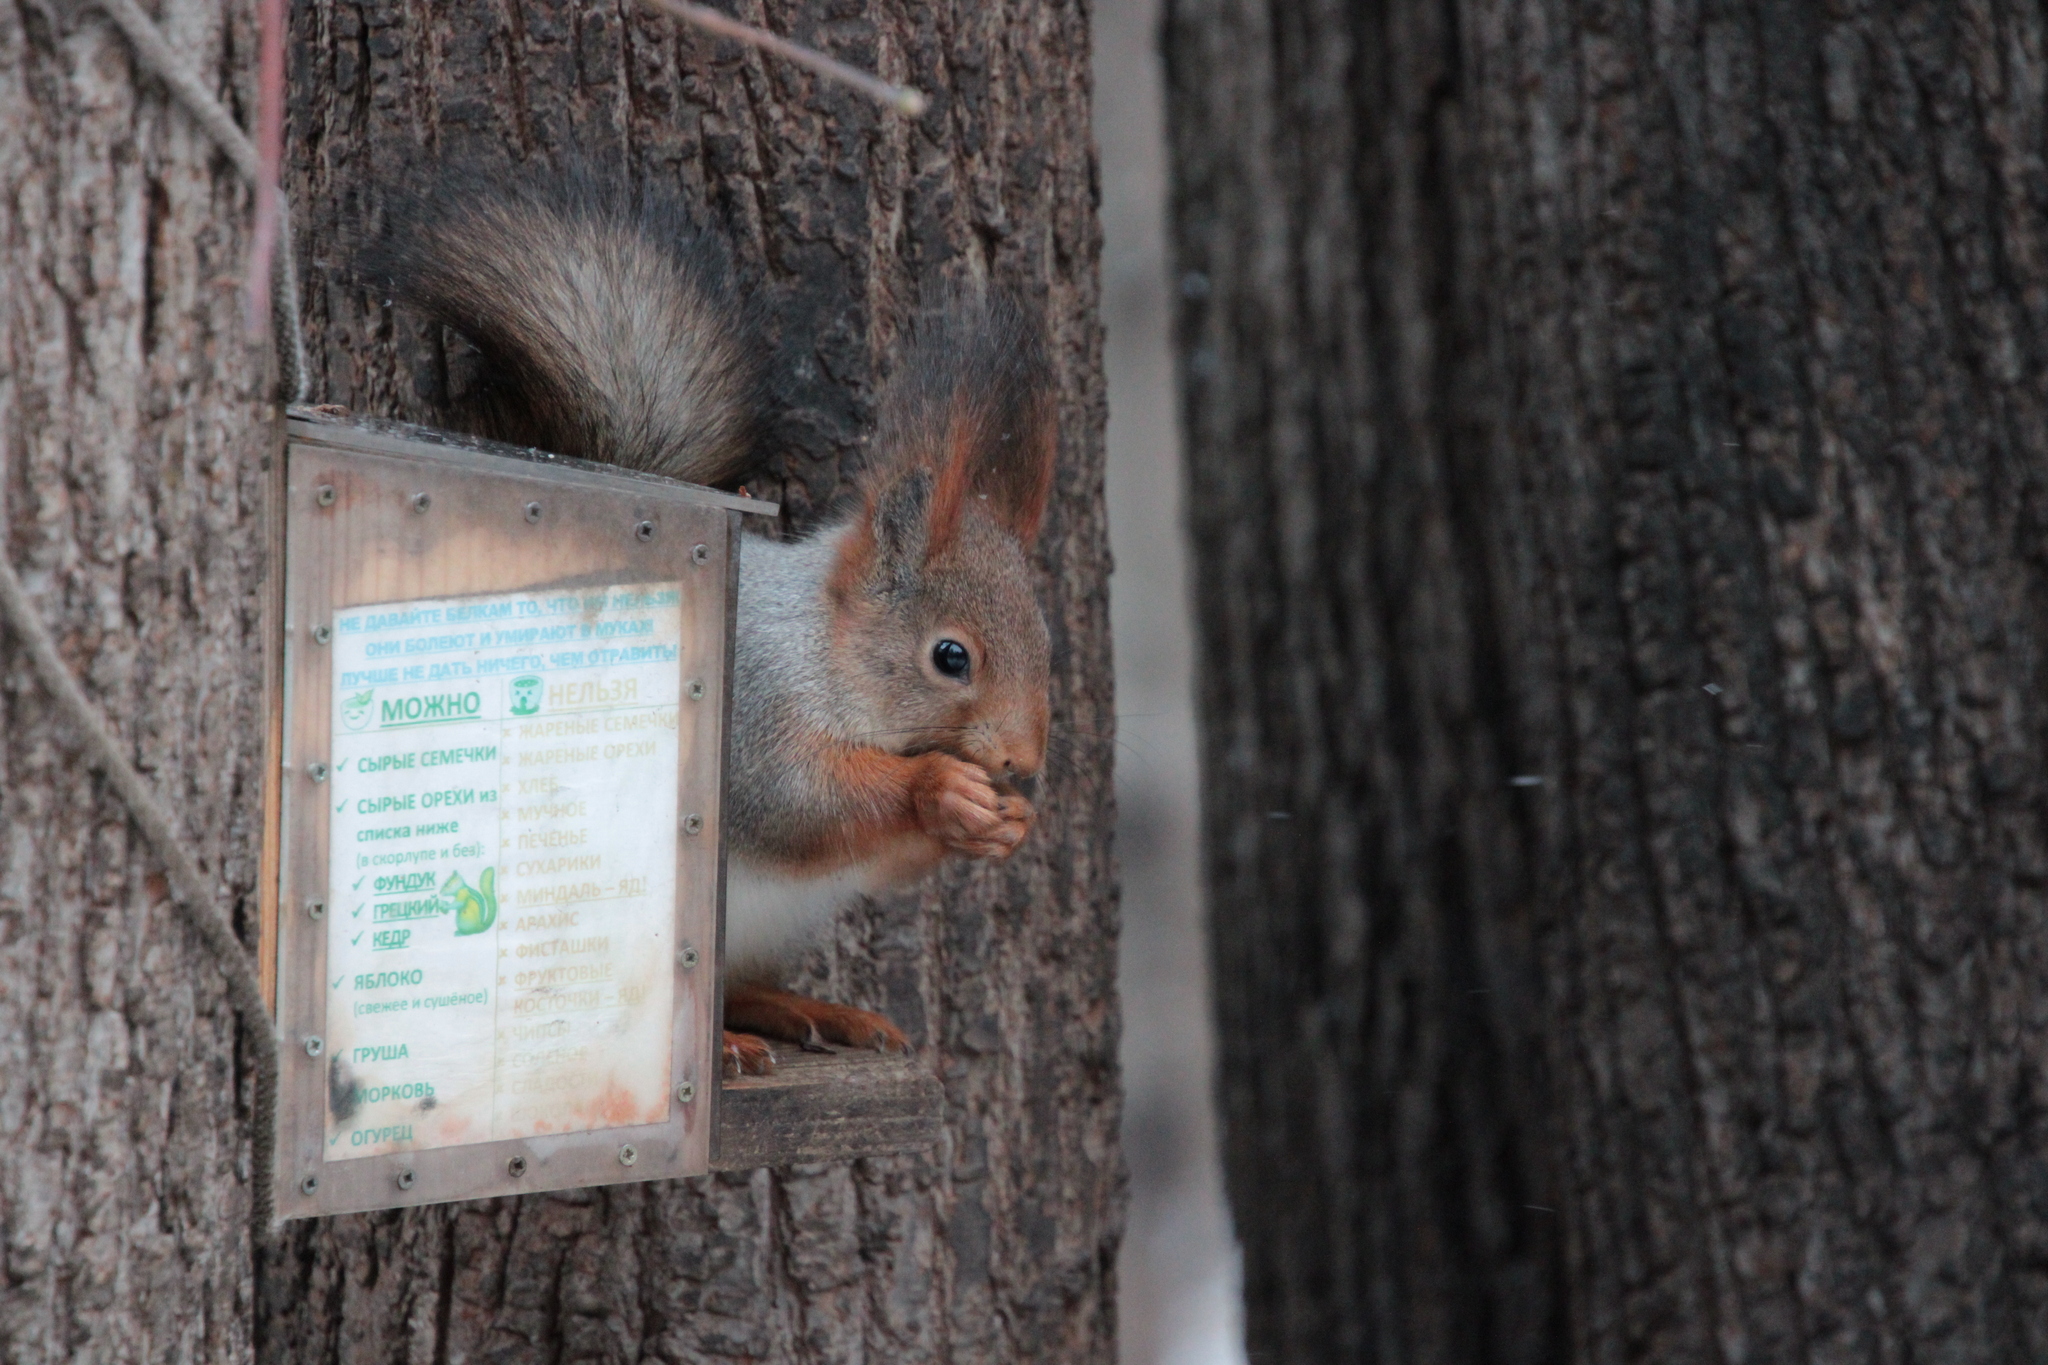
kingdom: Animalia
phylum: Chordata
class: Mammalia
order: Rodentia
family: Sciuridae
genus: Sciurus
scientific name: Sciurus vulgaris
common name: Eurasian red squirrel
